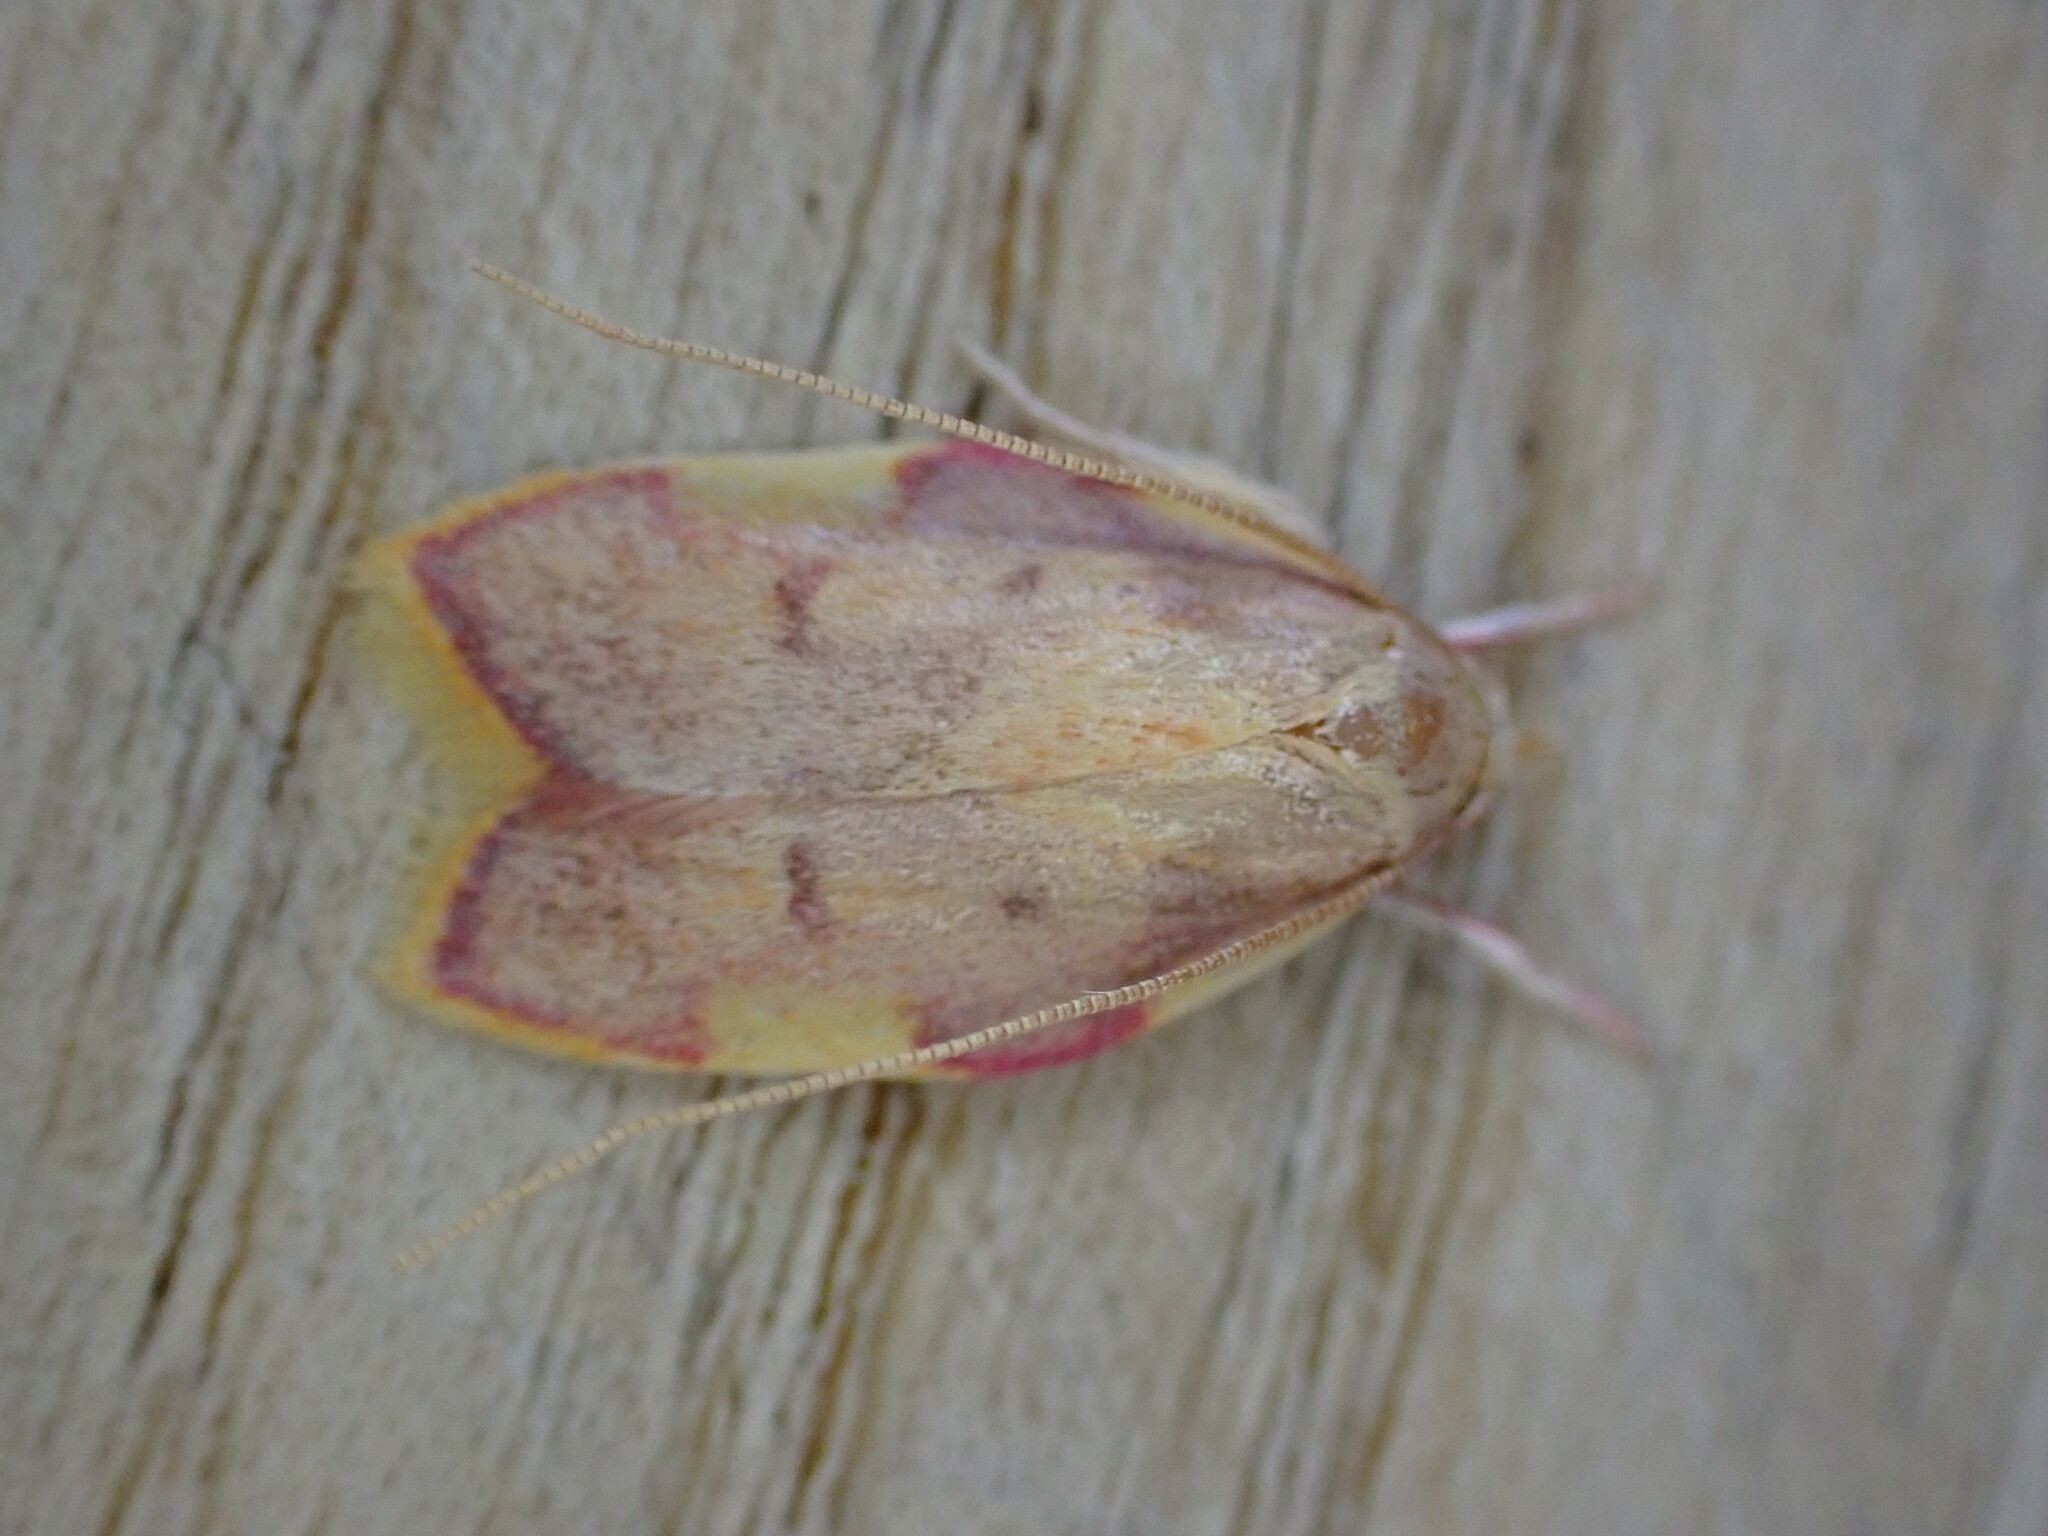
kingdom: Animalia
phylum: Arthropoda
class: Insecta
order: Lepidoptera
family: Peleopodidae
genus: Carcina
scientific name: Carcina quercana
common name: Moth
